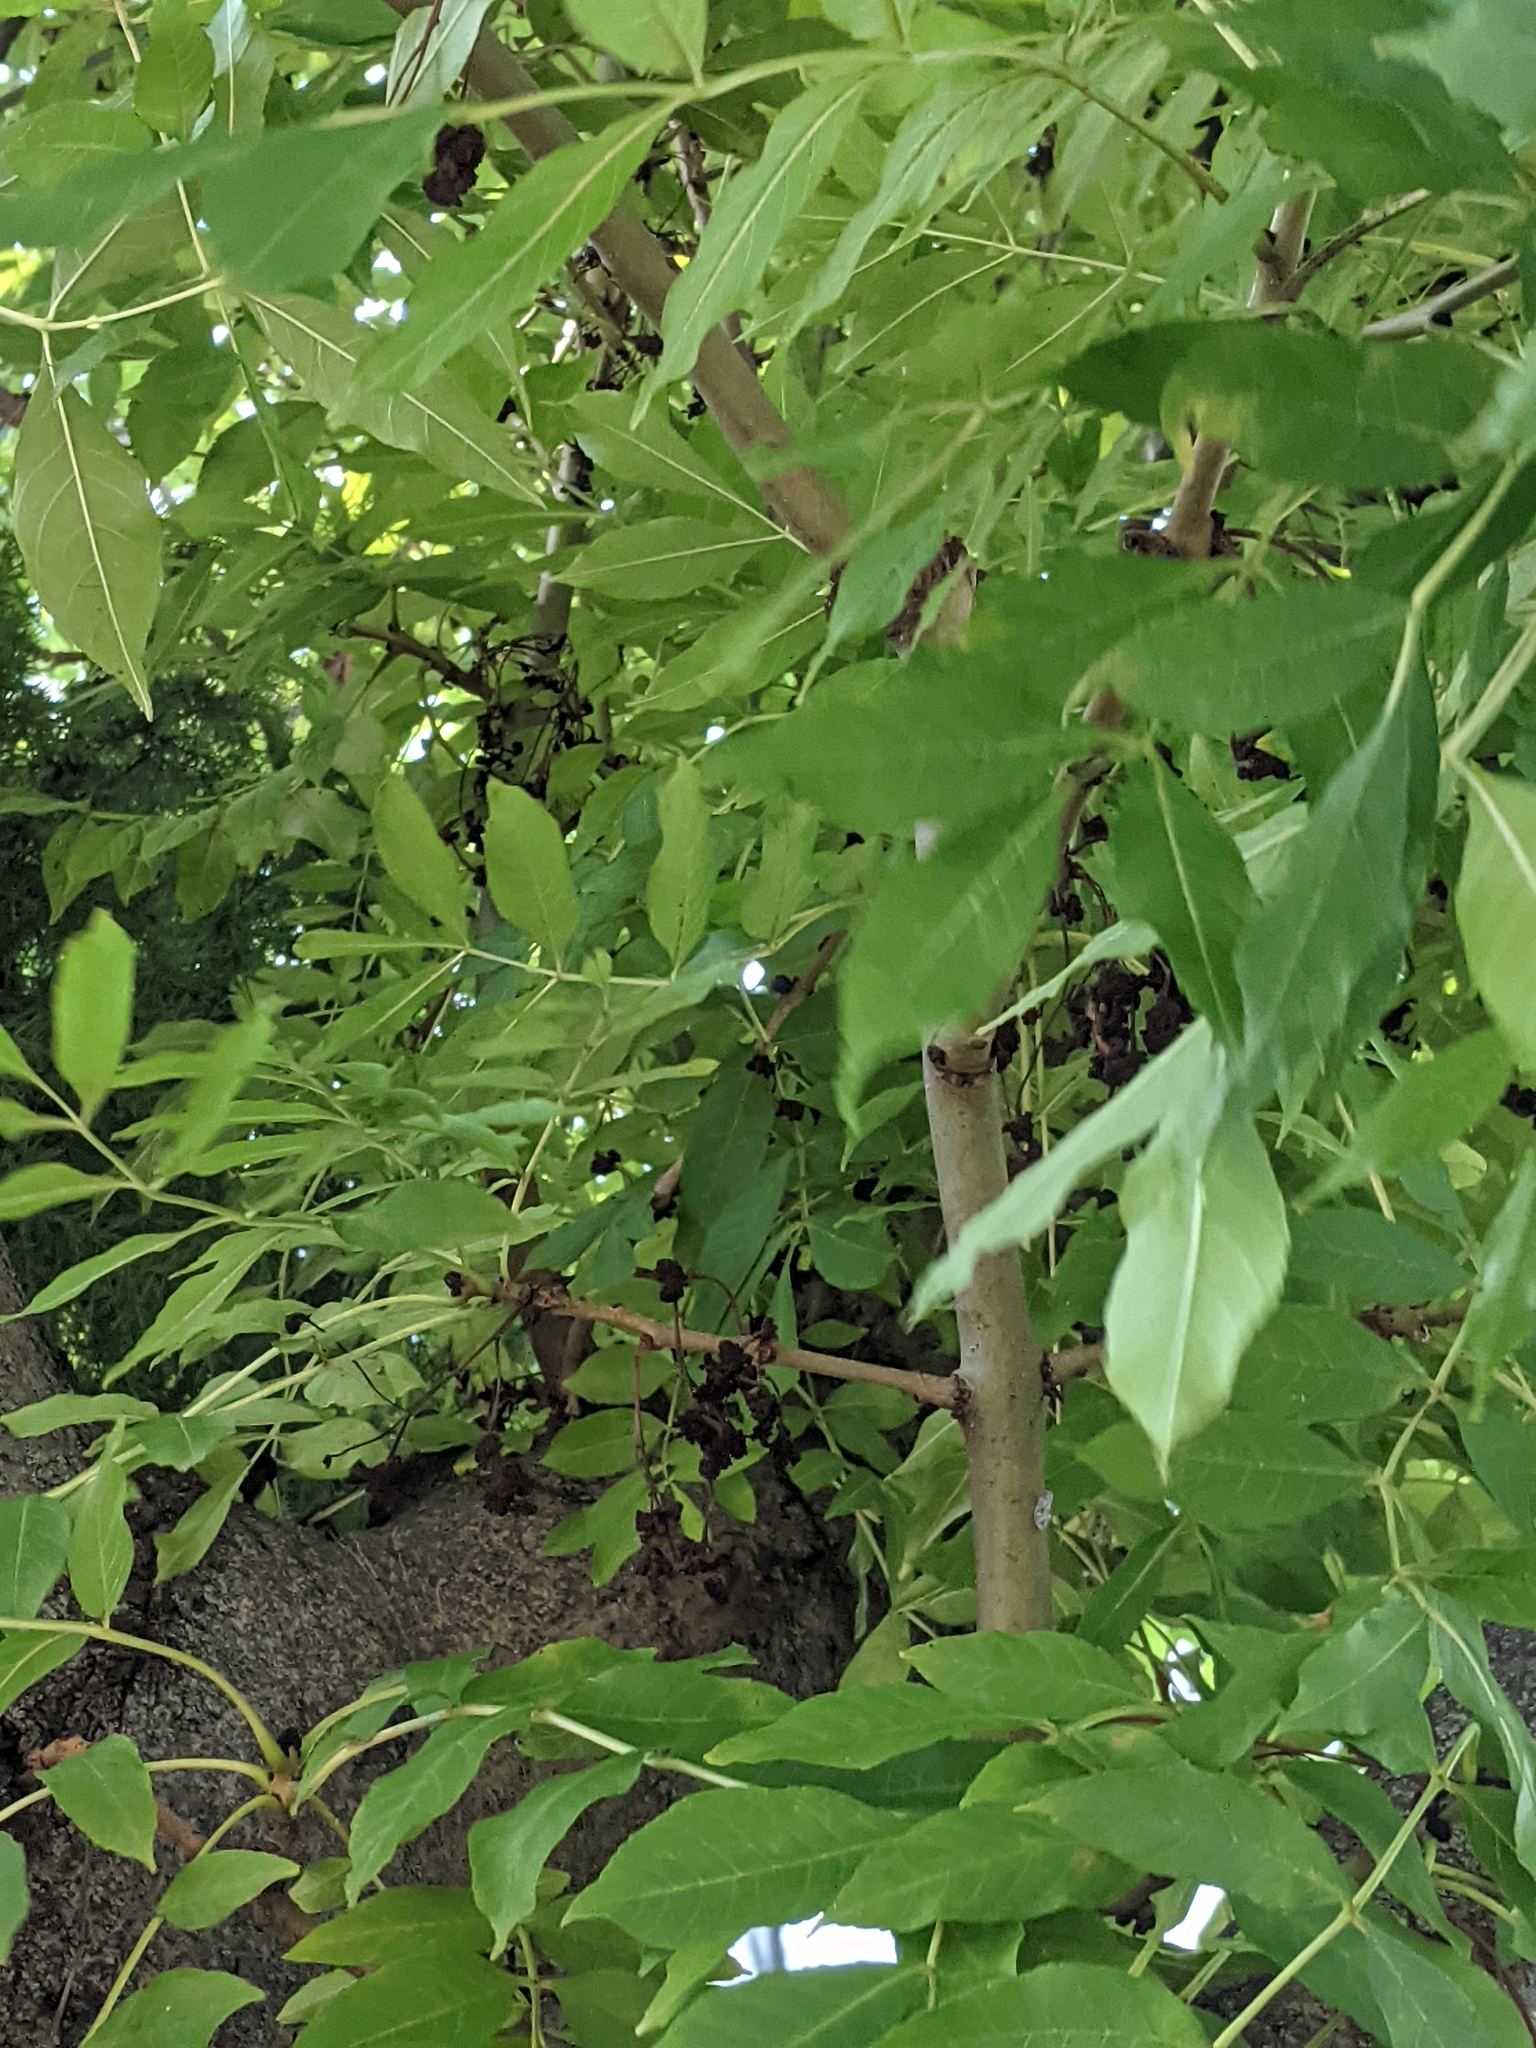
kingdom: Plantae
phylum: Tracheophyta
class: Magnoliopsida
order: Lamiales
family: Oleaceae
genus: Fraxinus
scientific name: Fraxinus excelsior
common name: European ash
